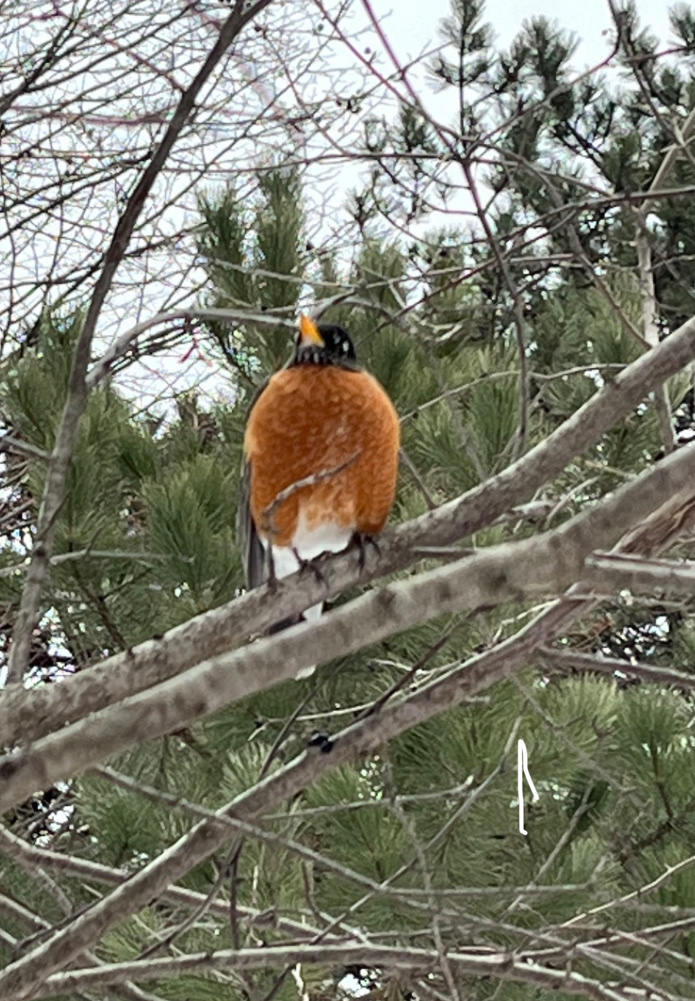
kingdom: Animalia
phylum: Chordata
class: Aves
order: Passeriformes
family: Turdidae
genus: Turdus
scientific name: Turdus migratorius
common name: American robin
